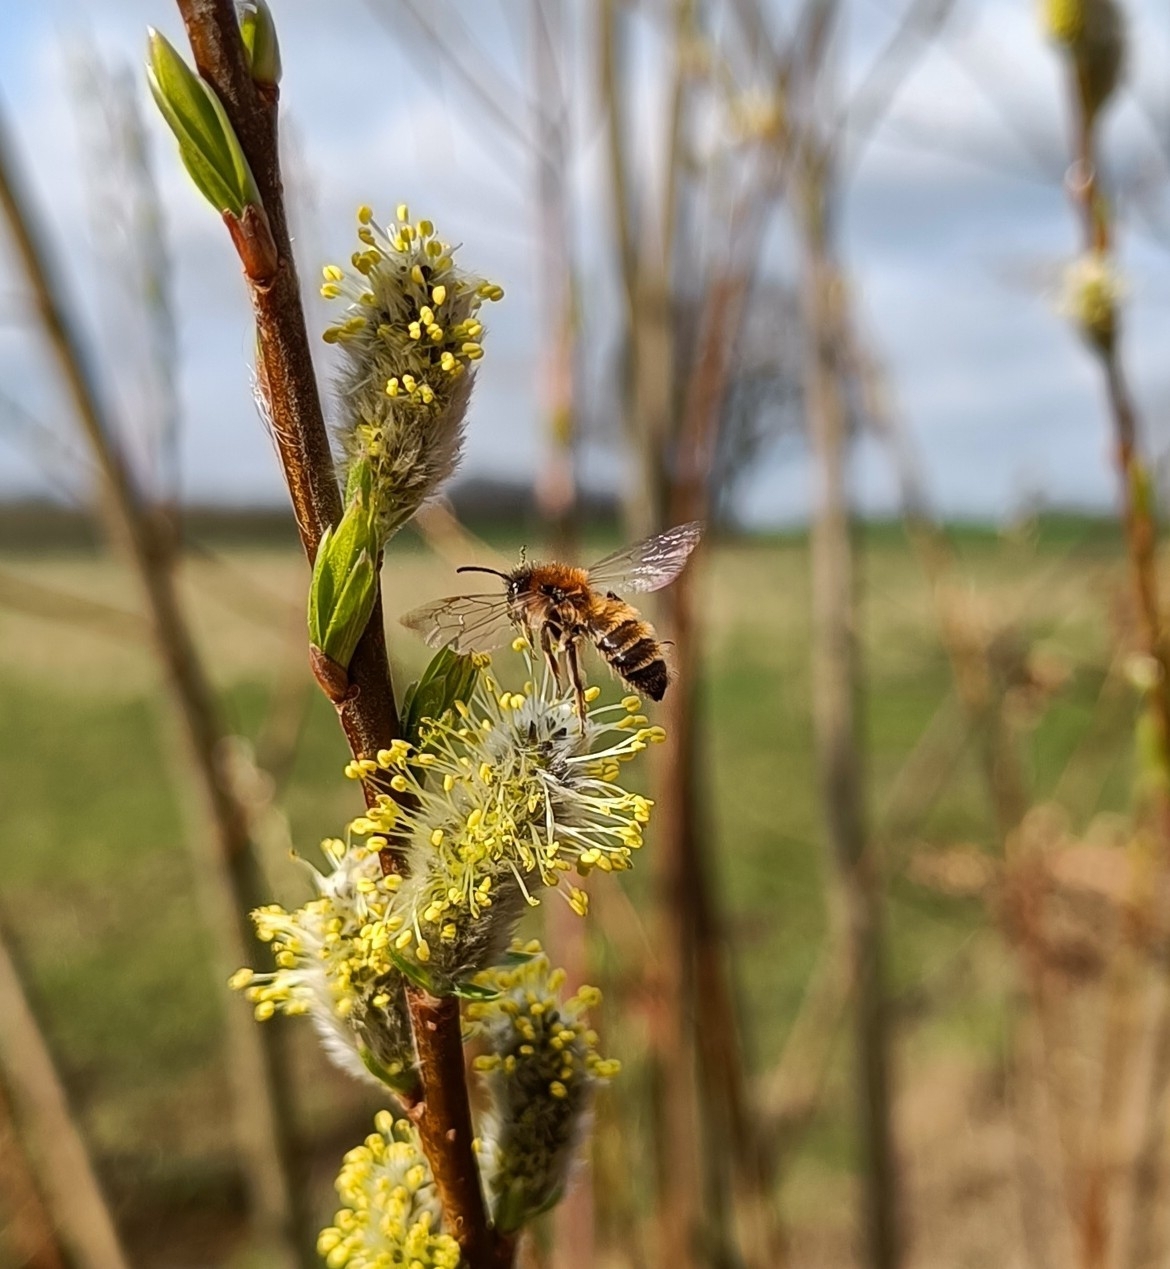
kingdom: Animalia
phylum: Arthropoda
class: Insecta
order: Hymenoptera
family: Andrenidae
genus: Andrena
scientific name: Andrena praecox
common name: Small sallow mining bee
